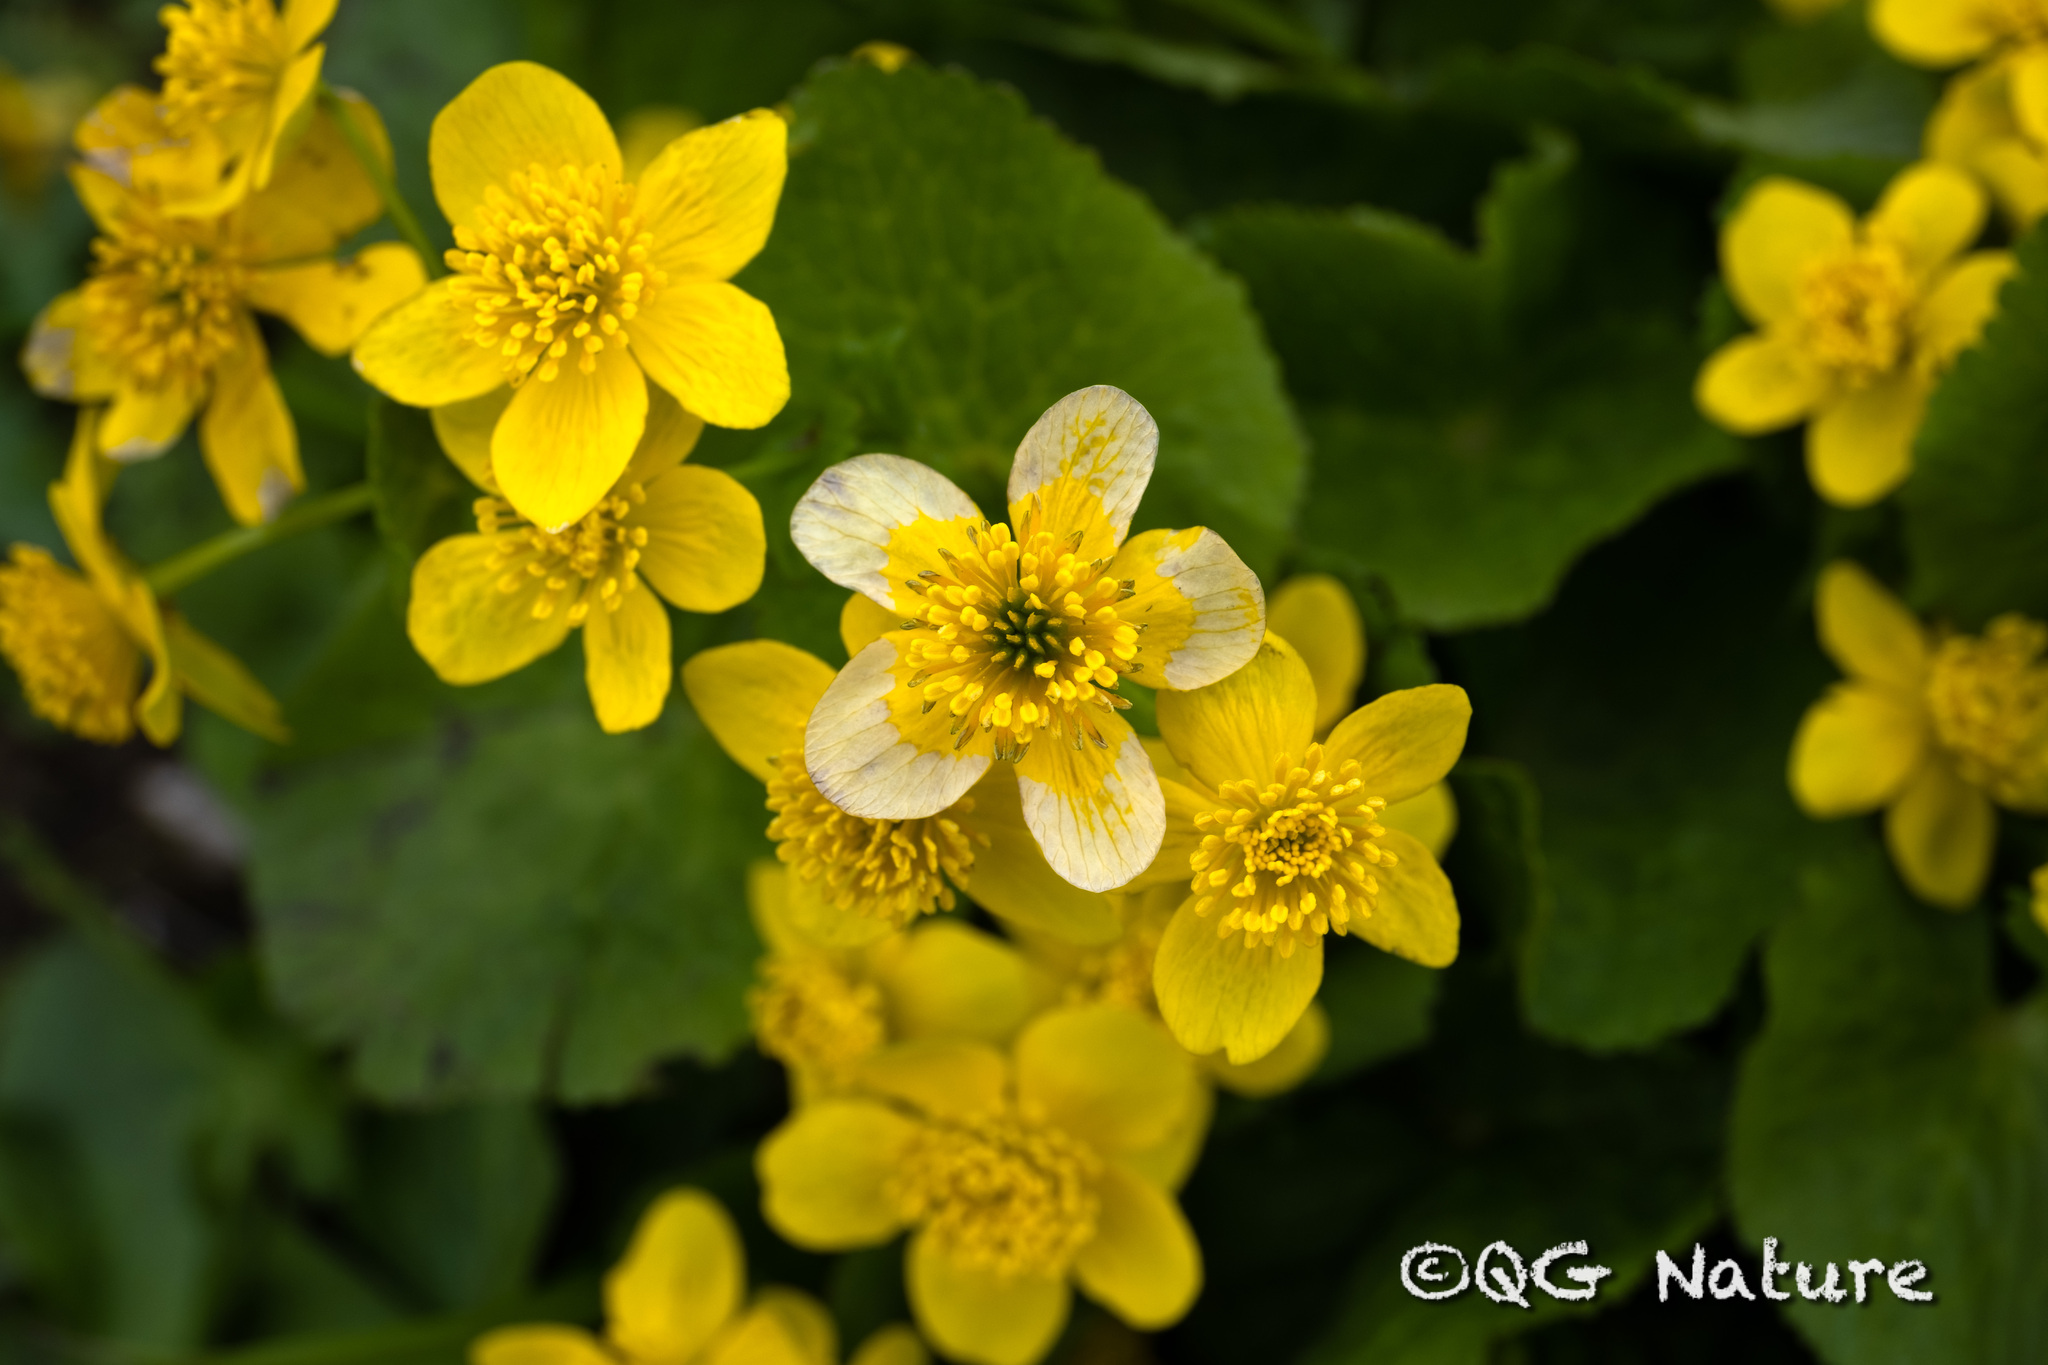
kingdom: Plantae
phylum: Tracheophyta
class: Magnoliopsida
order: Ranunculales
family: Ranunculaceae
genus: Caltha
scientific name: Caltha palustris
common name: Marsh marigold
